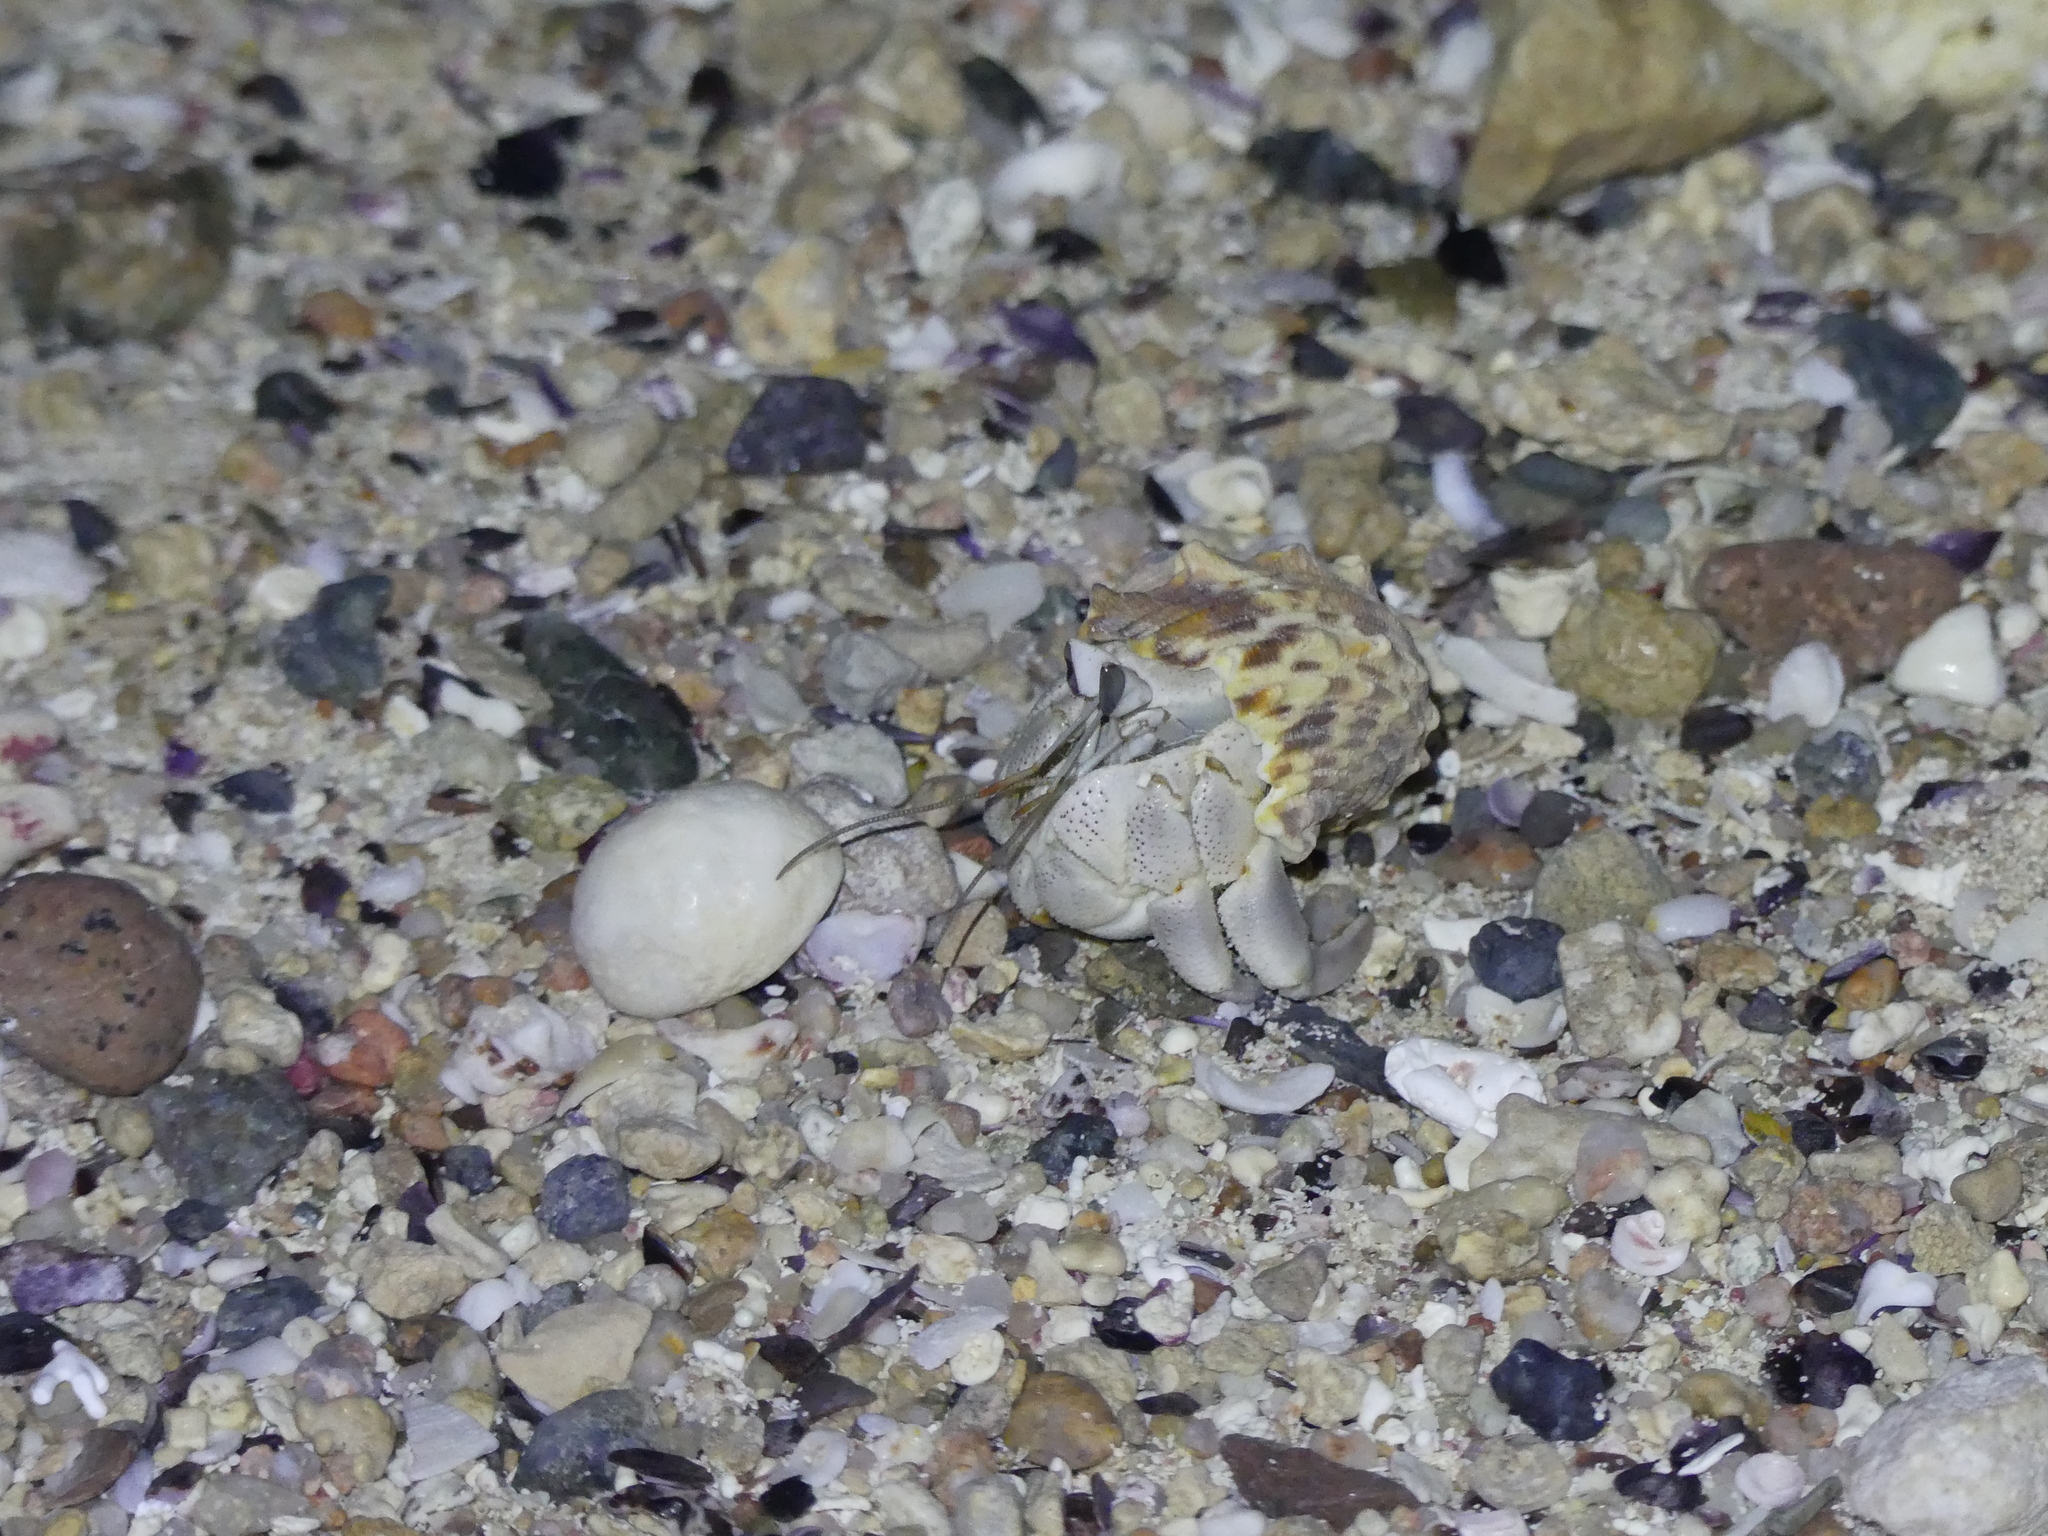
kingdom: Animalia
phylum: Arthropoda
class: Malacostraca
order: Decapoda
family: Coenobitidae
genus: Coenobita
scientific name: Coenobita scaevola
